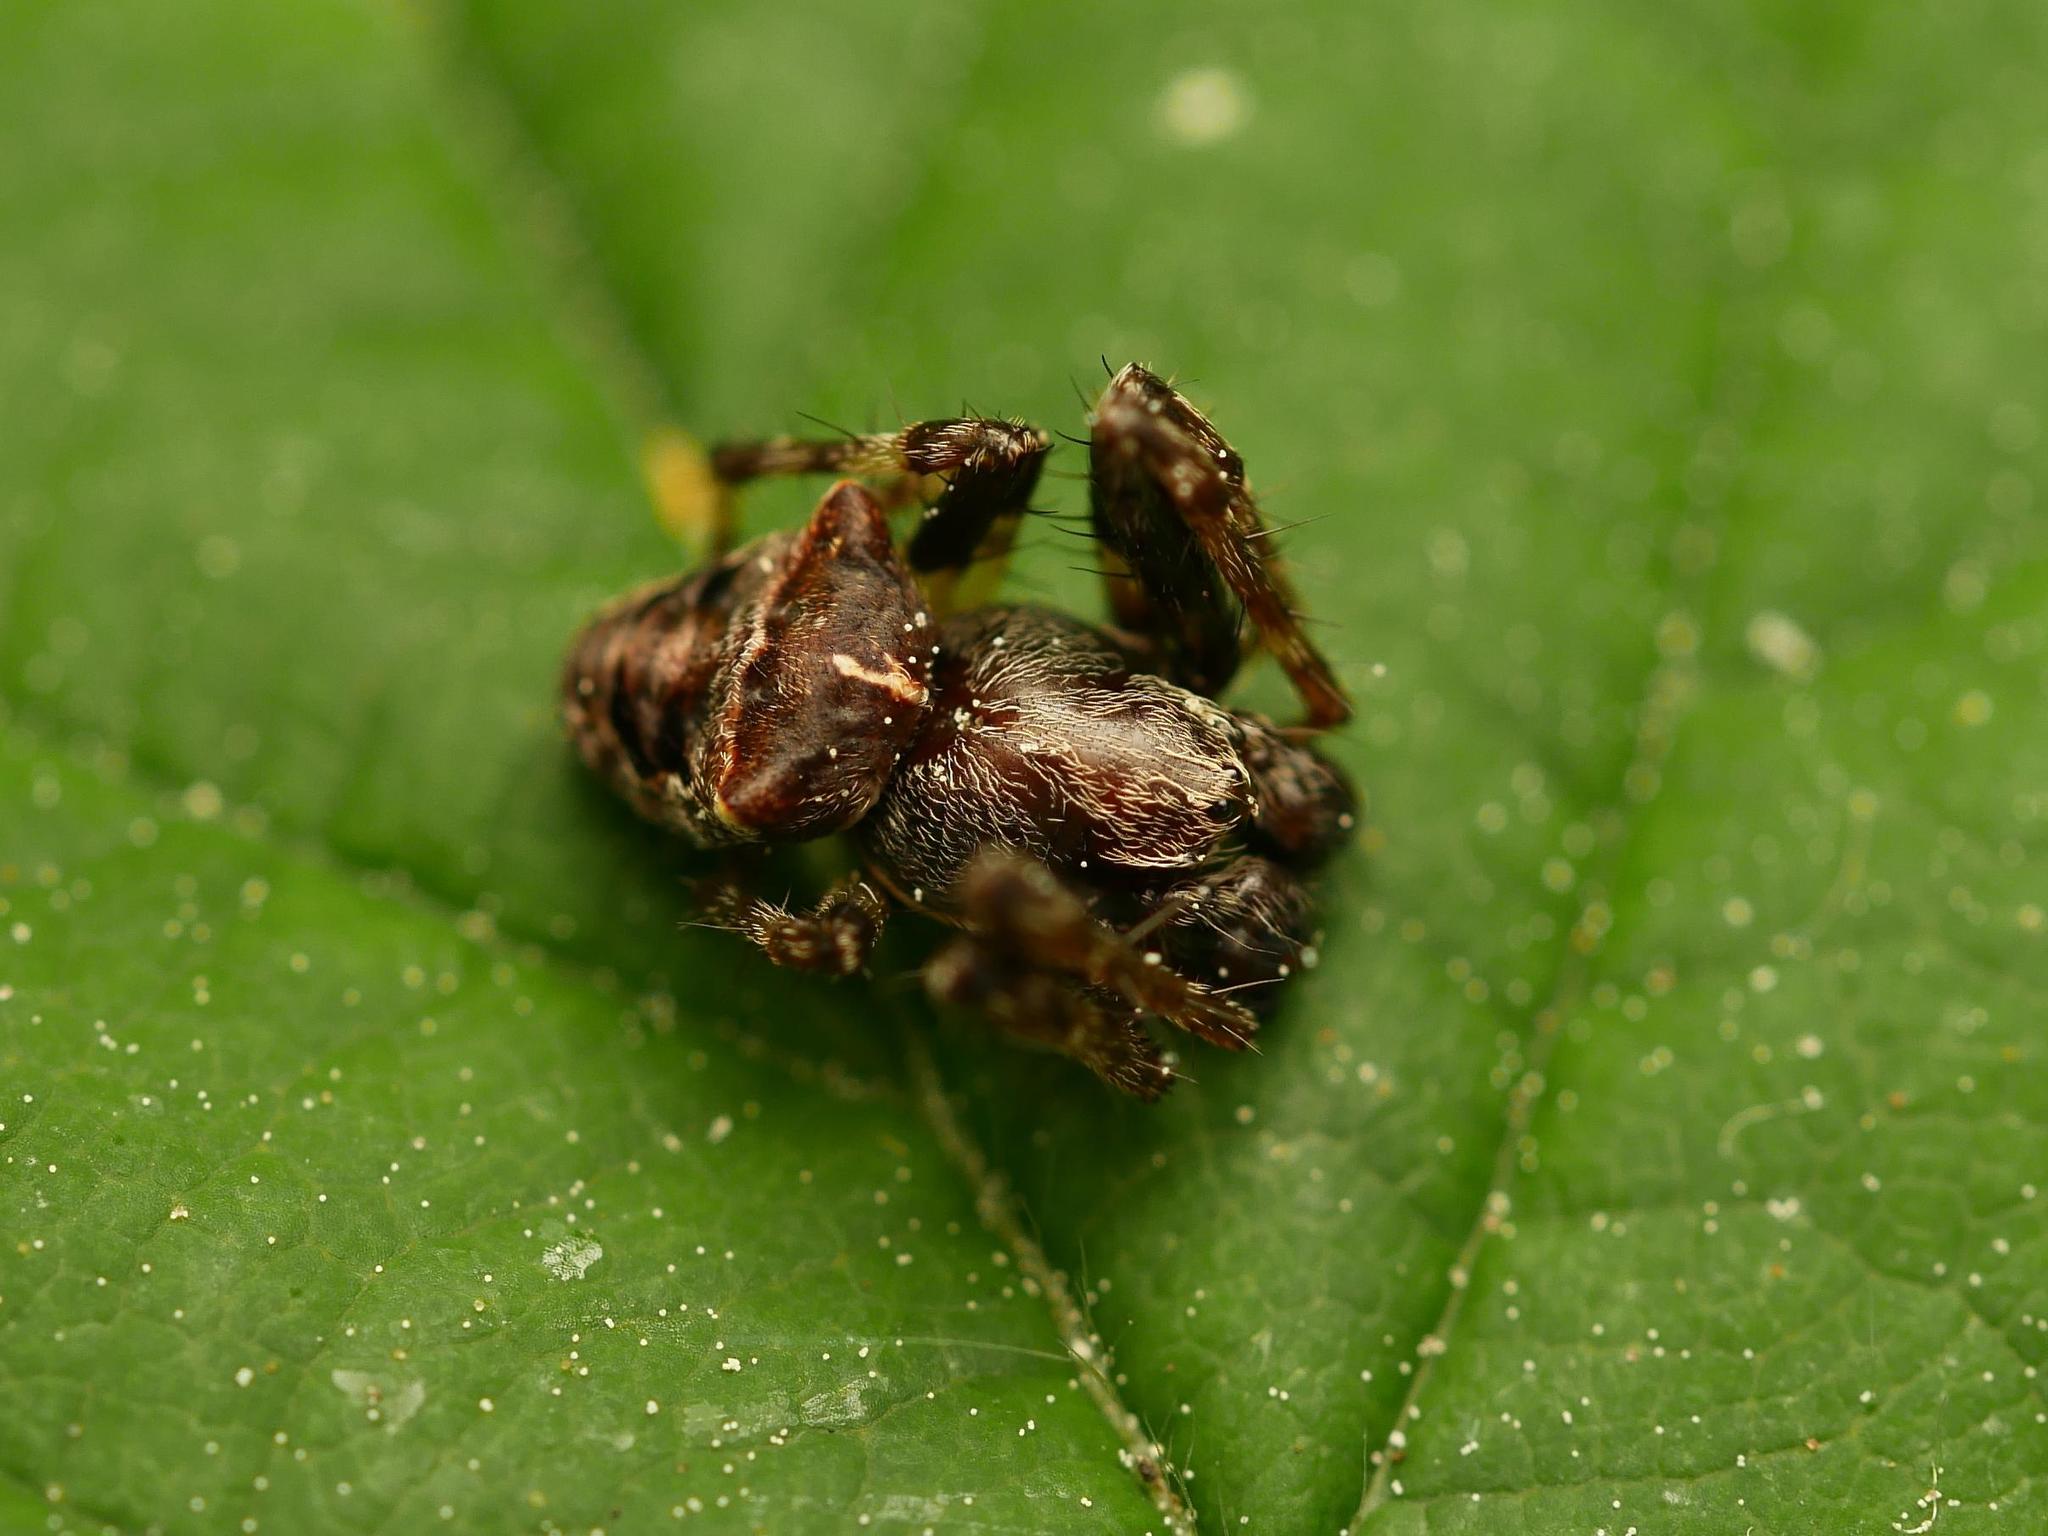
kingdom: Animalia
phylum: Arthropoda
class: Arachnida
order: Araneae
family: Araneidae
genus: Gibbaranea
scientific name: Gibbaranea bituberculata
